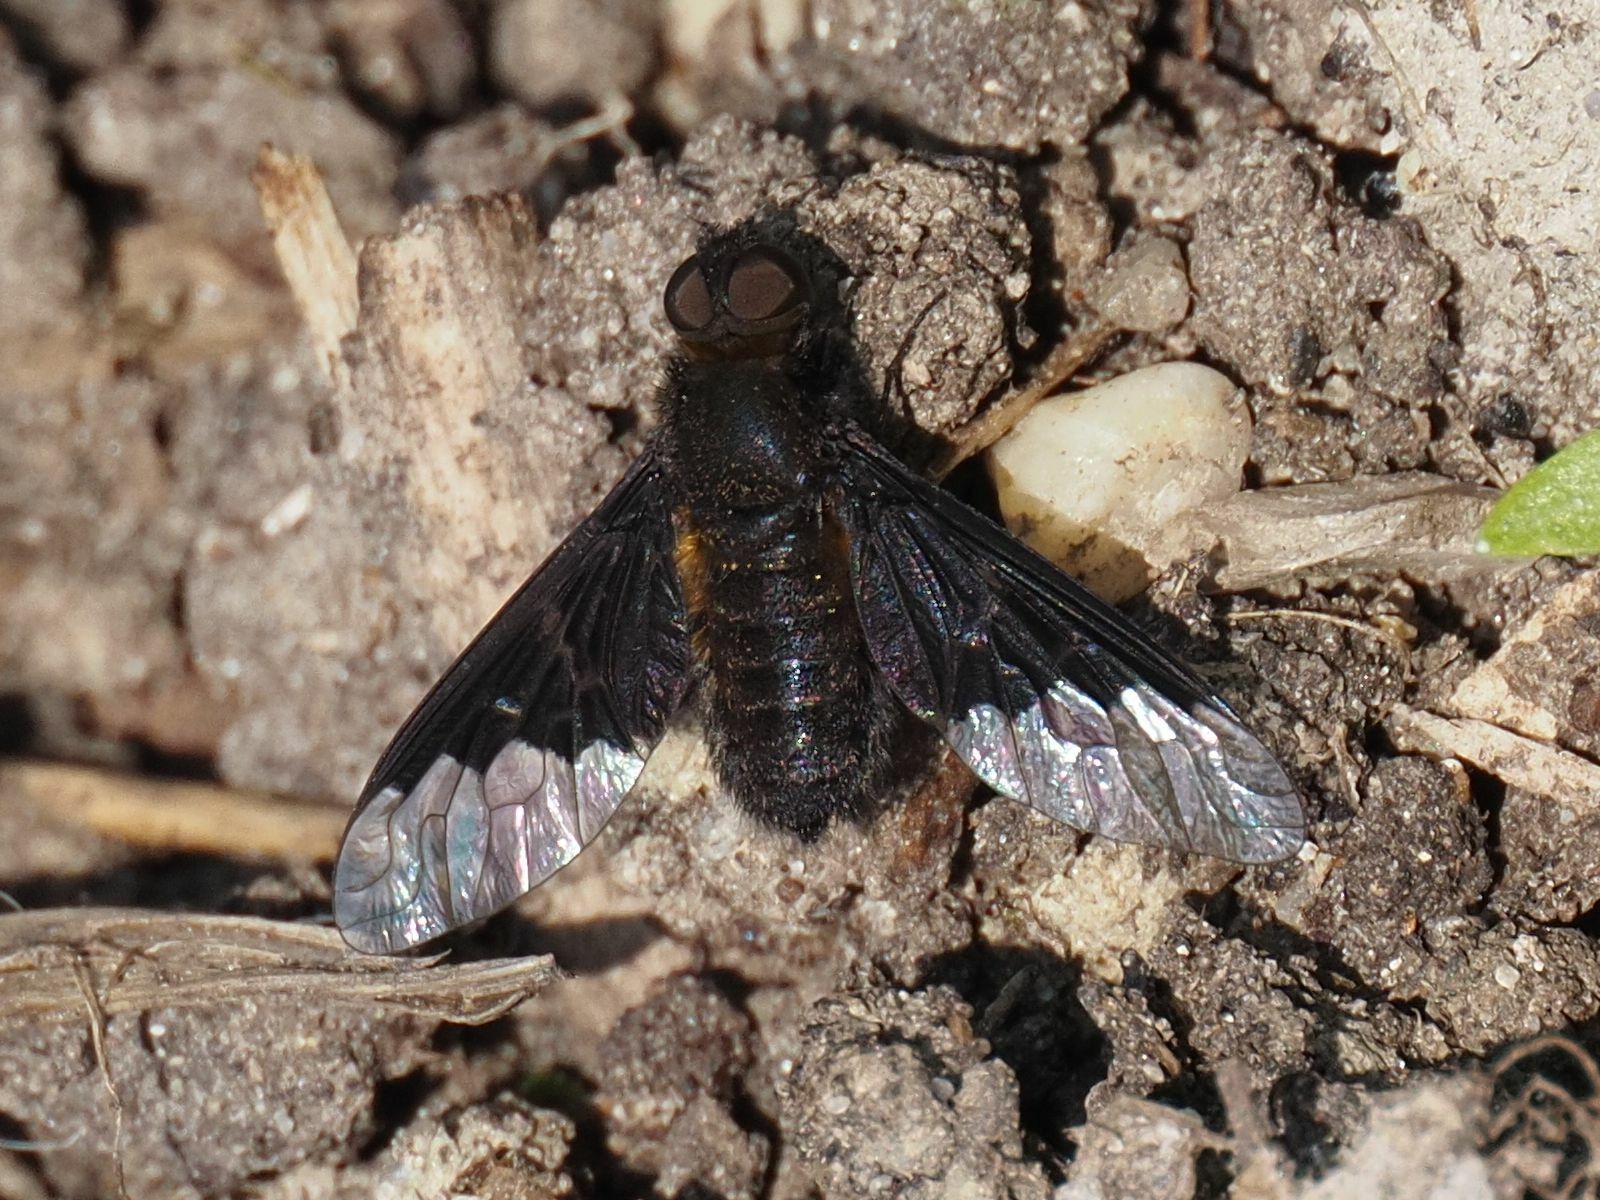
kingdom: Animalia
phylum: Arthropoda
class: Insecta
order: Diptera
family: Bombyliidae
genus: Hemipenthes
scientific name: Hemipenthes morio
